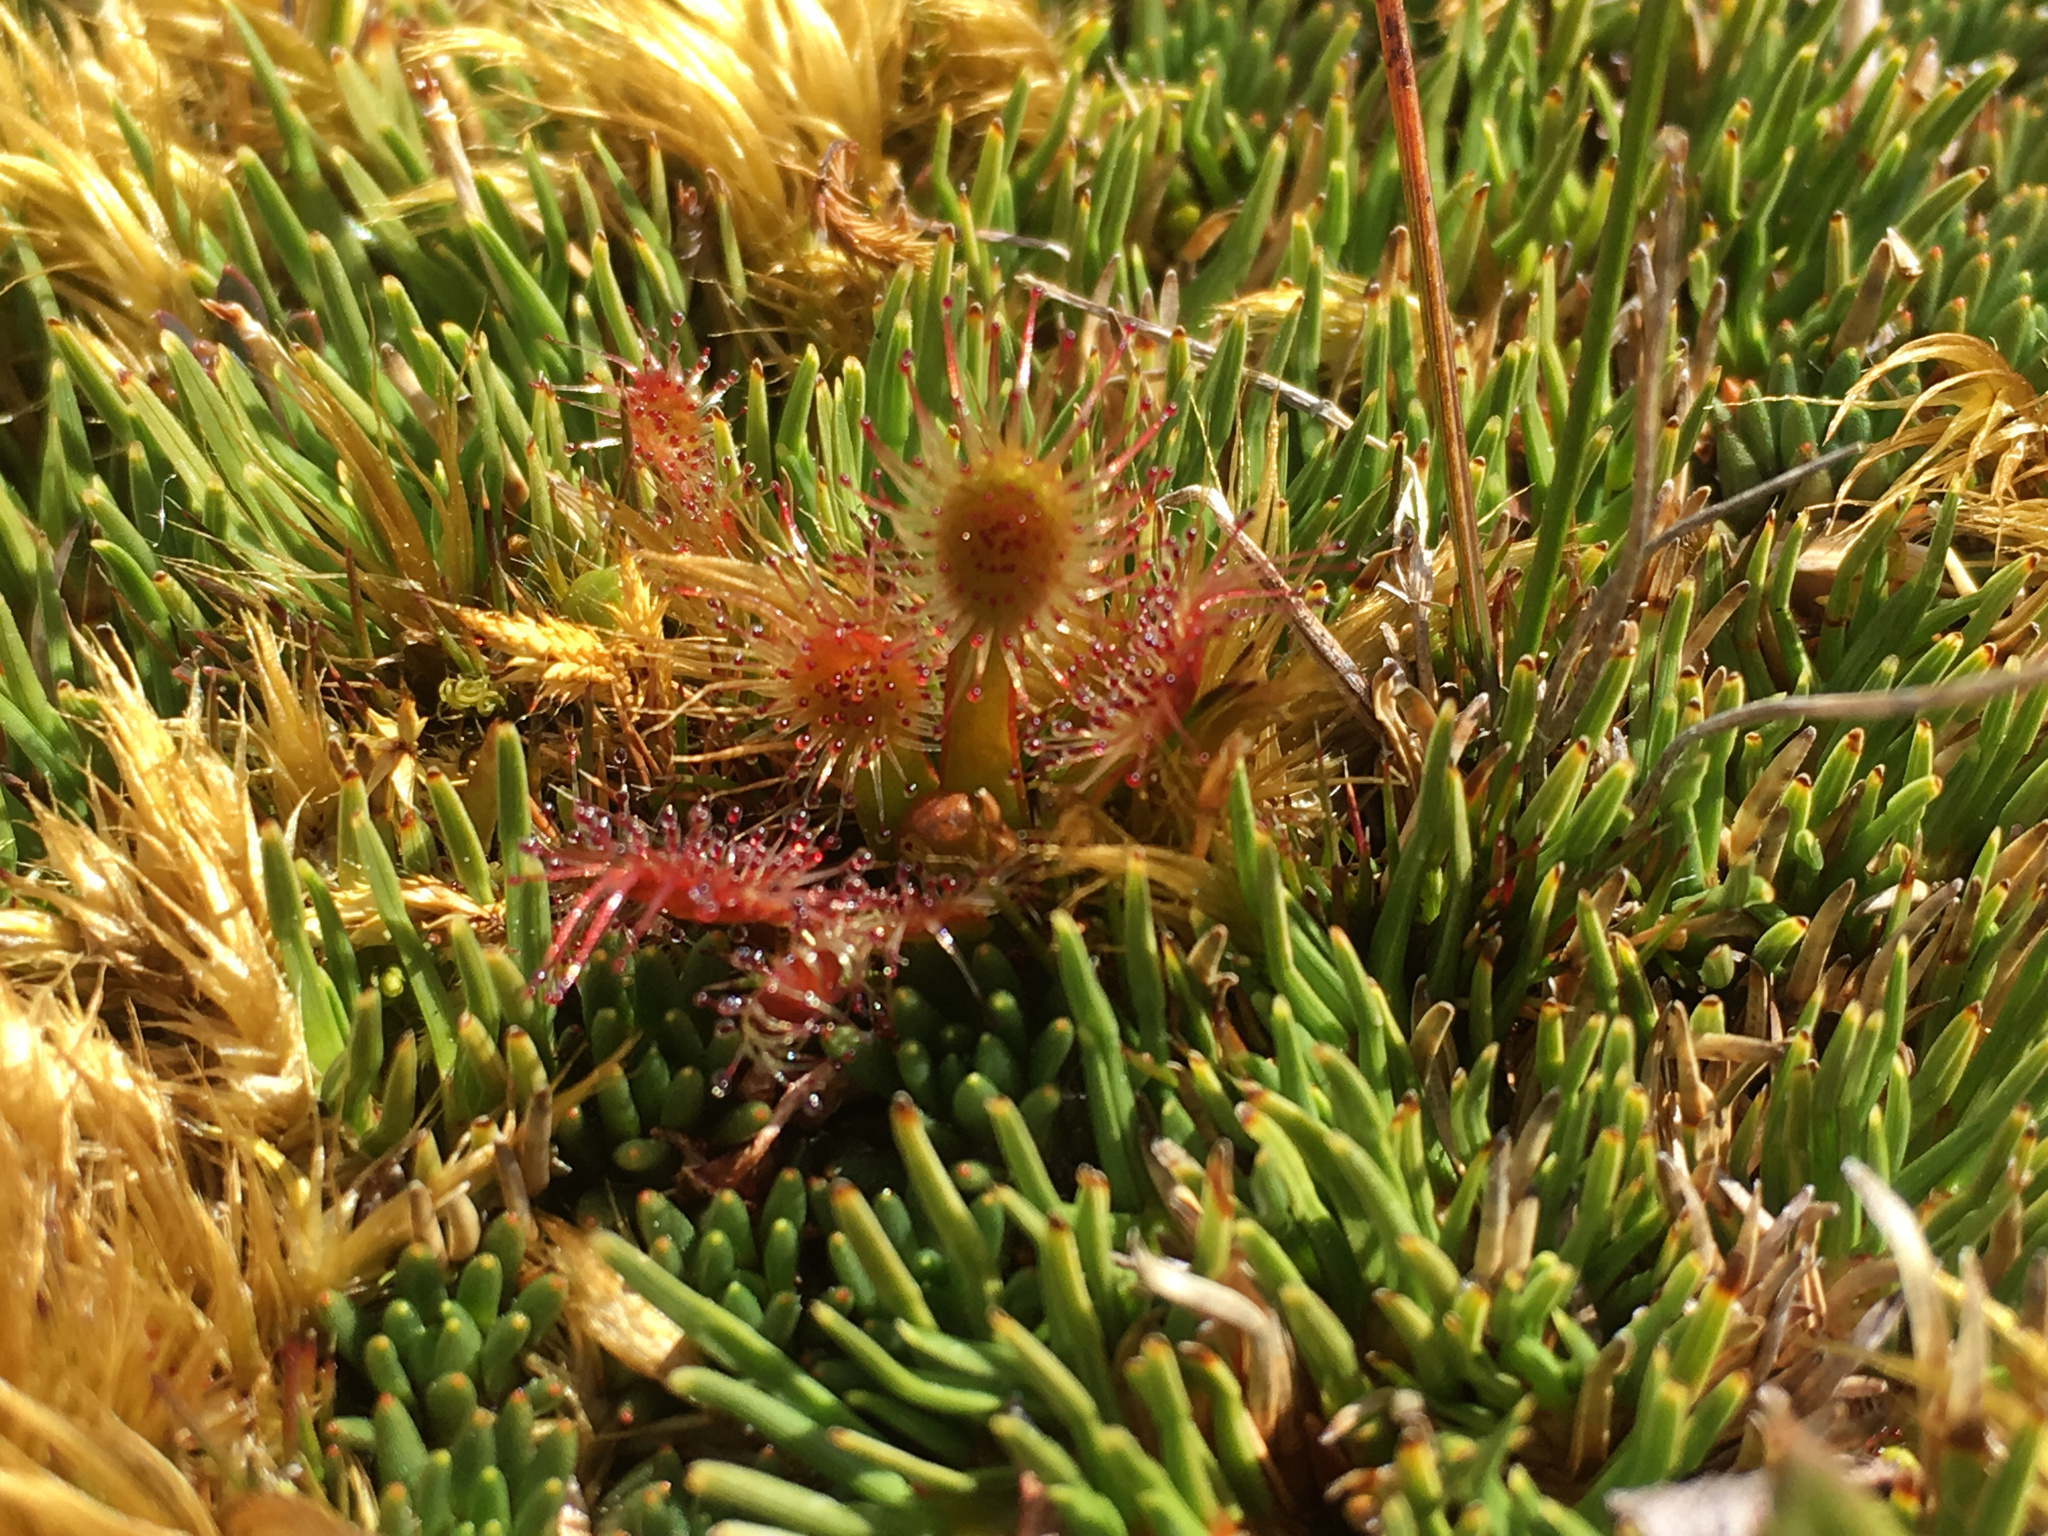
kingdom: Plantae
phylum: Tracheophyta
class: Magnoliopsida
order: Caryophyllales
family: Droseraceae
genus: Drosera
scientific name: Drosera stenopetala
